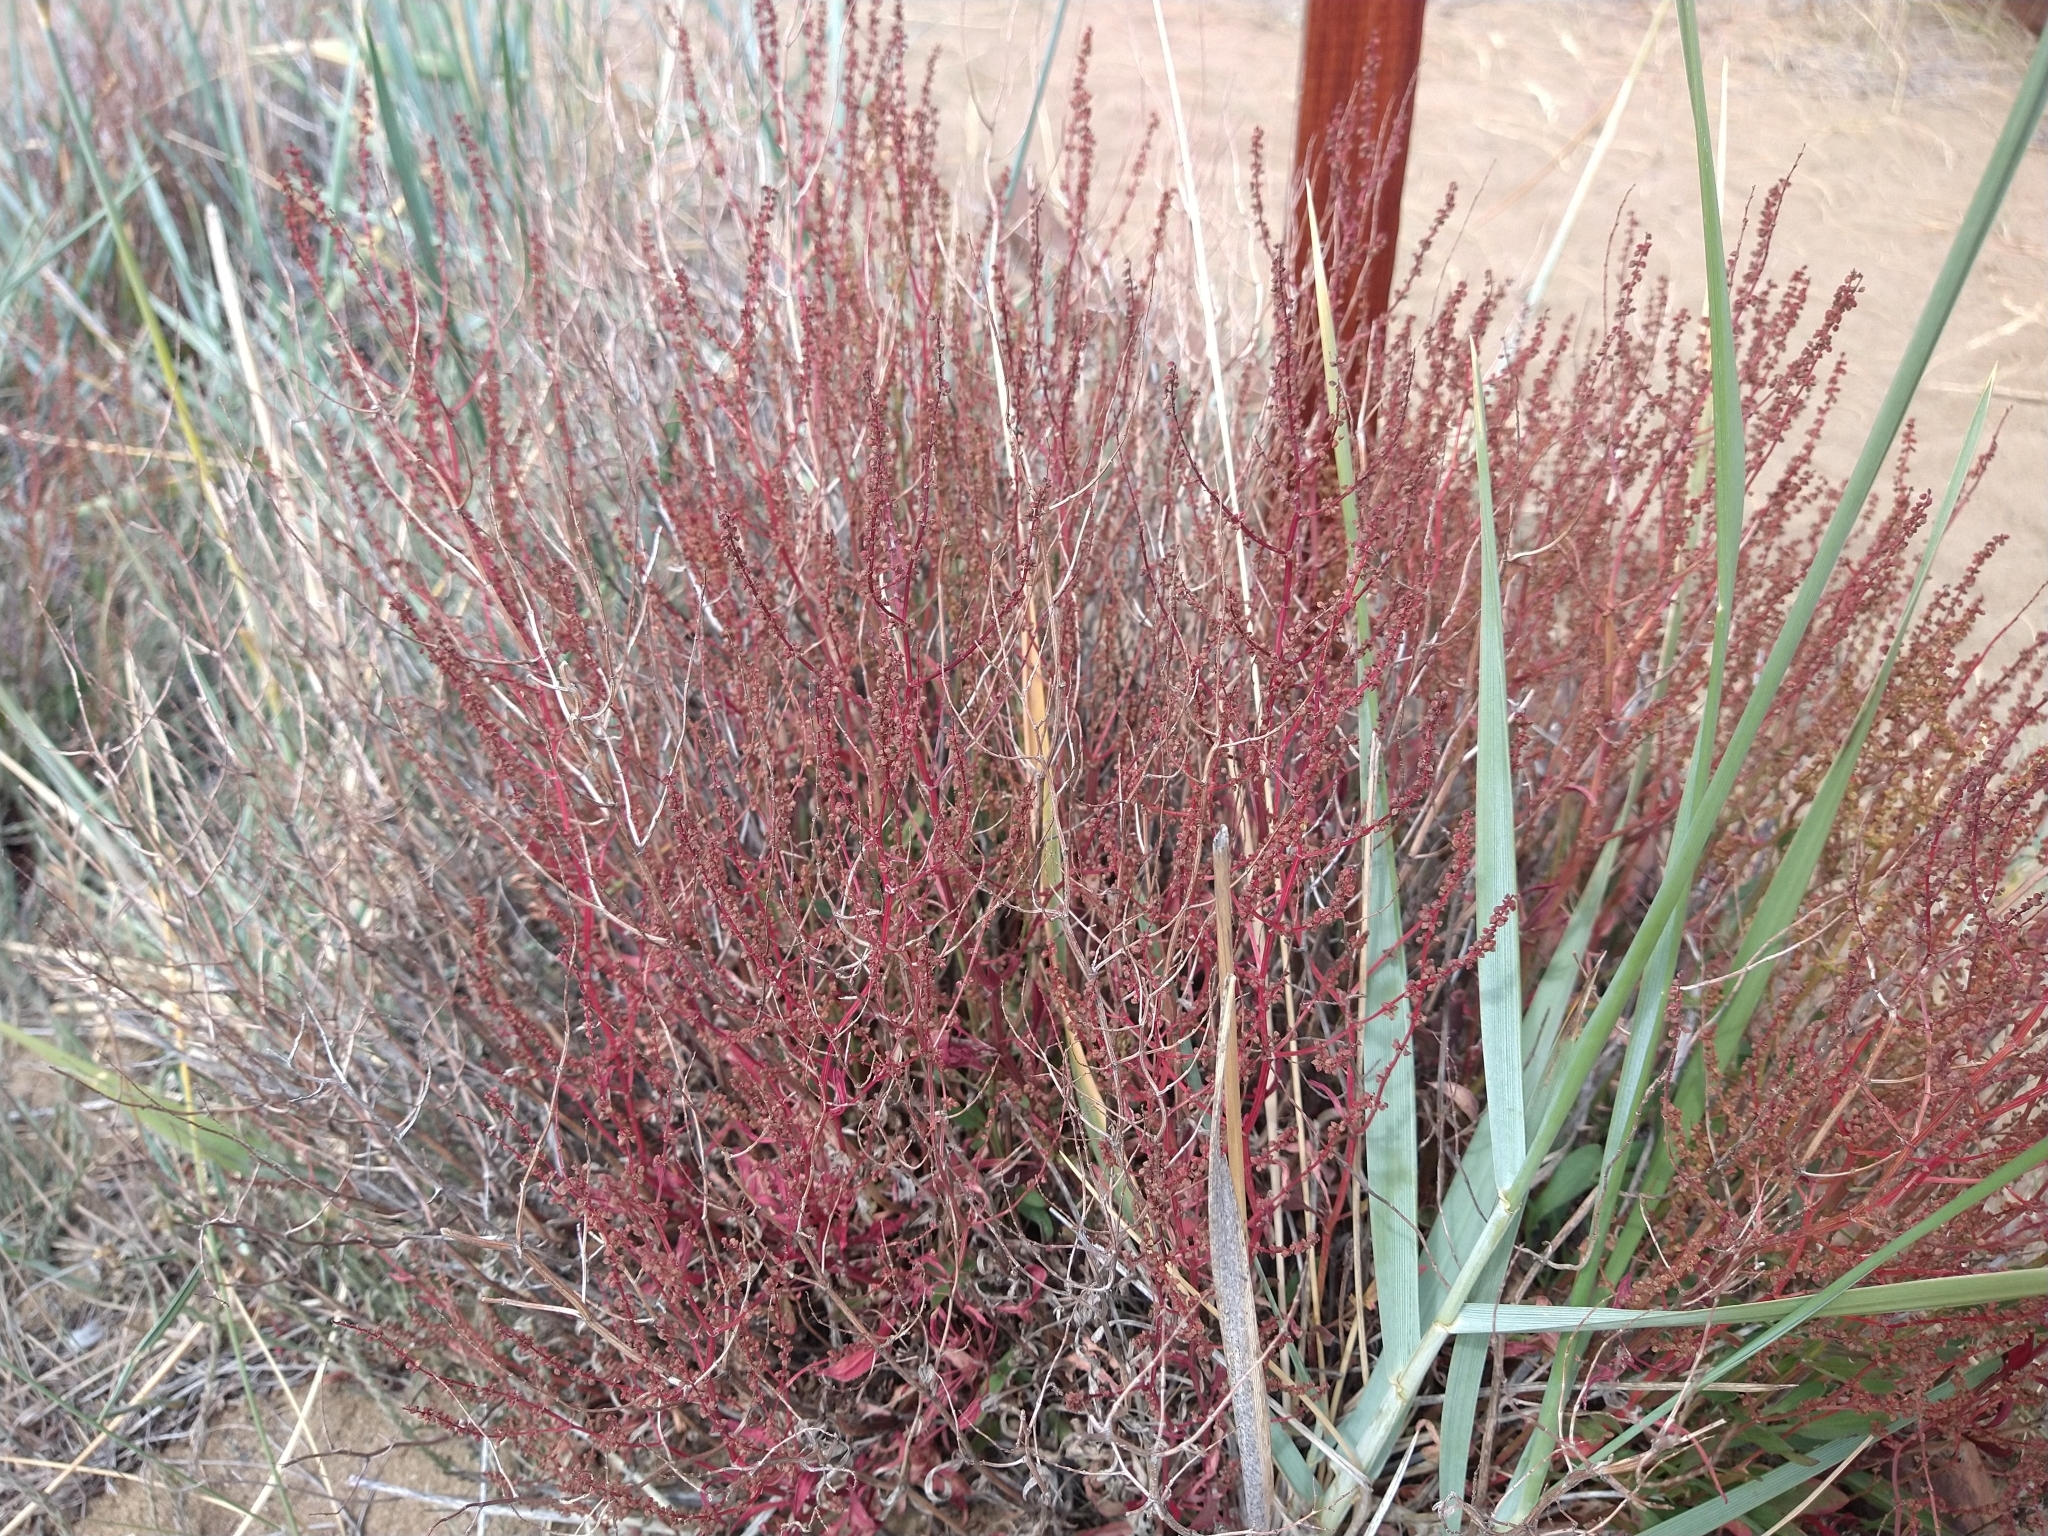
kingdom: Plantae
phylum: Tracheophyta
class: Magnoliopsida
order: Caryophyllales
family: Polygonaceae
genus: Rumex
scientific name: Rumex acetosella
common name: Common sheep sorrel
